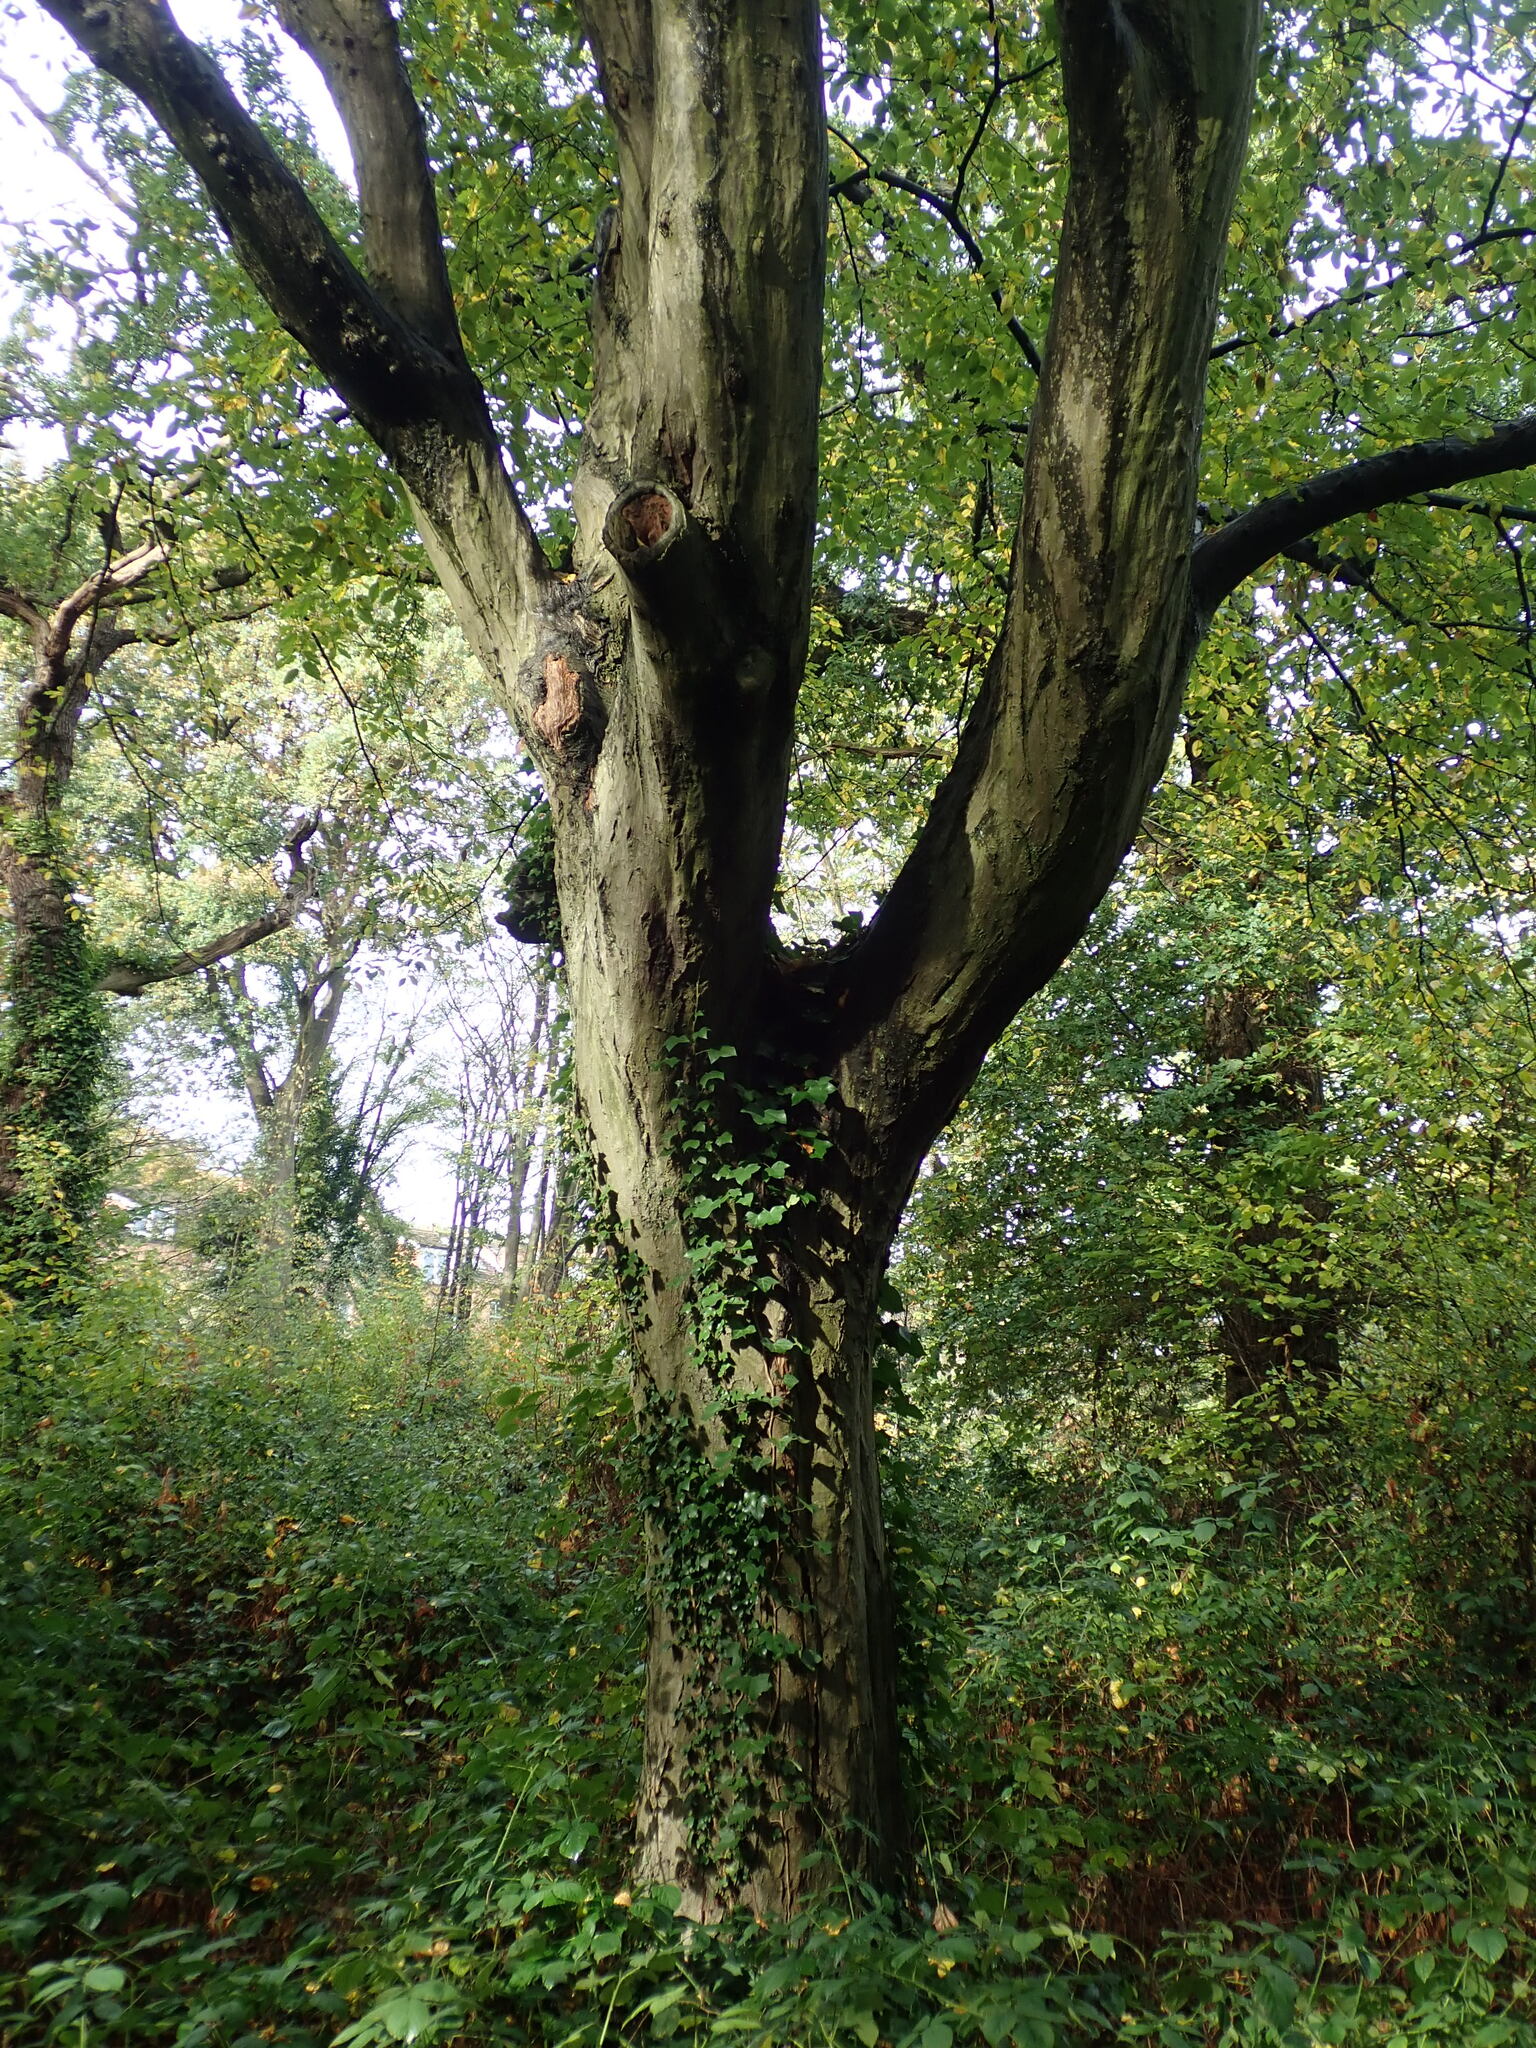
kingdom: Plantae
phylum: Tracheophyta
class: Magnoliopsida
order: Fagales
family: Betulaceae
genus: Carpinus
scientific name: Carpinus betulus
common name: Hornbeam
